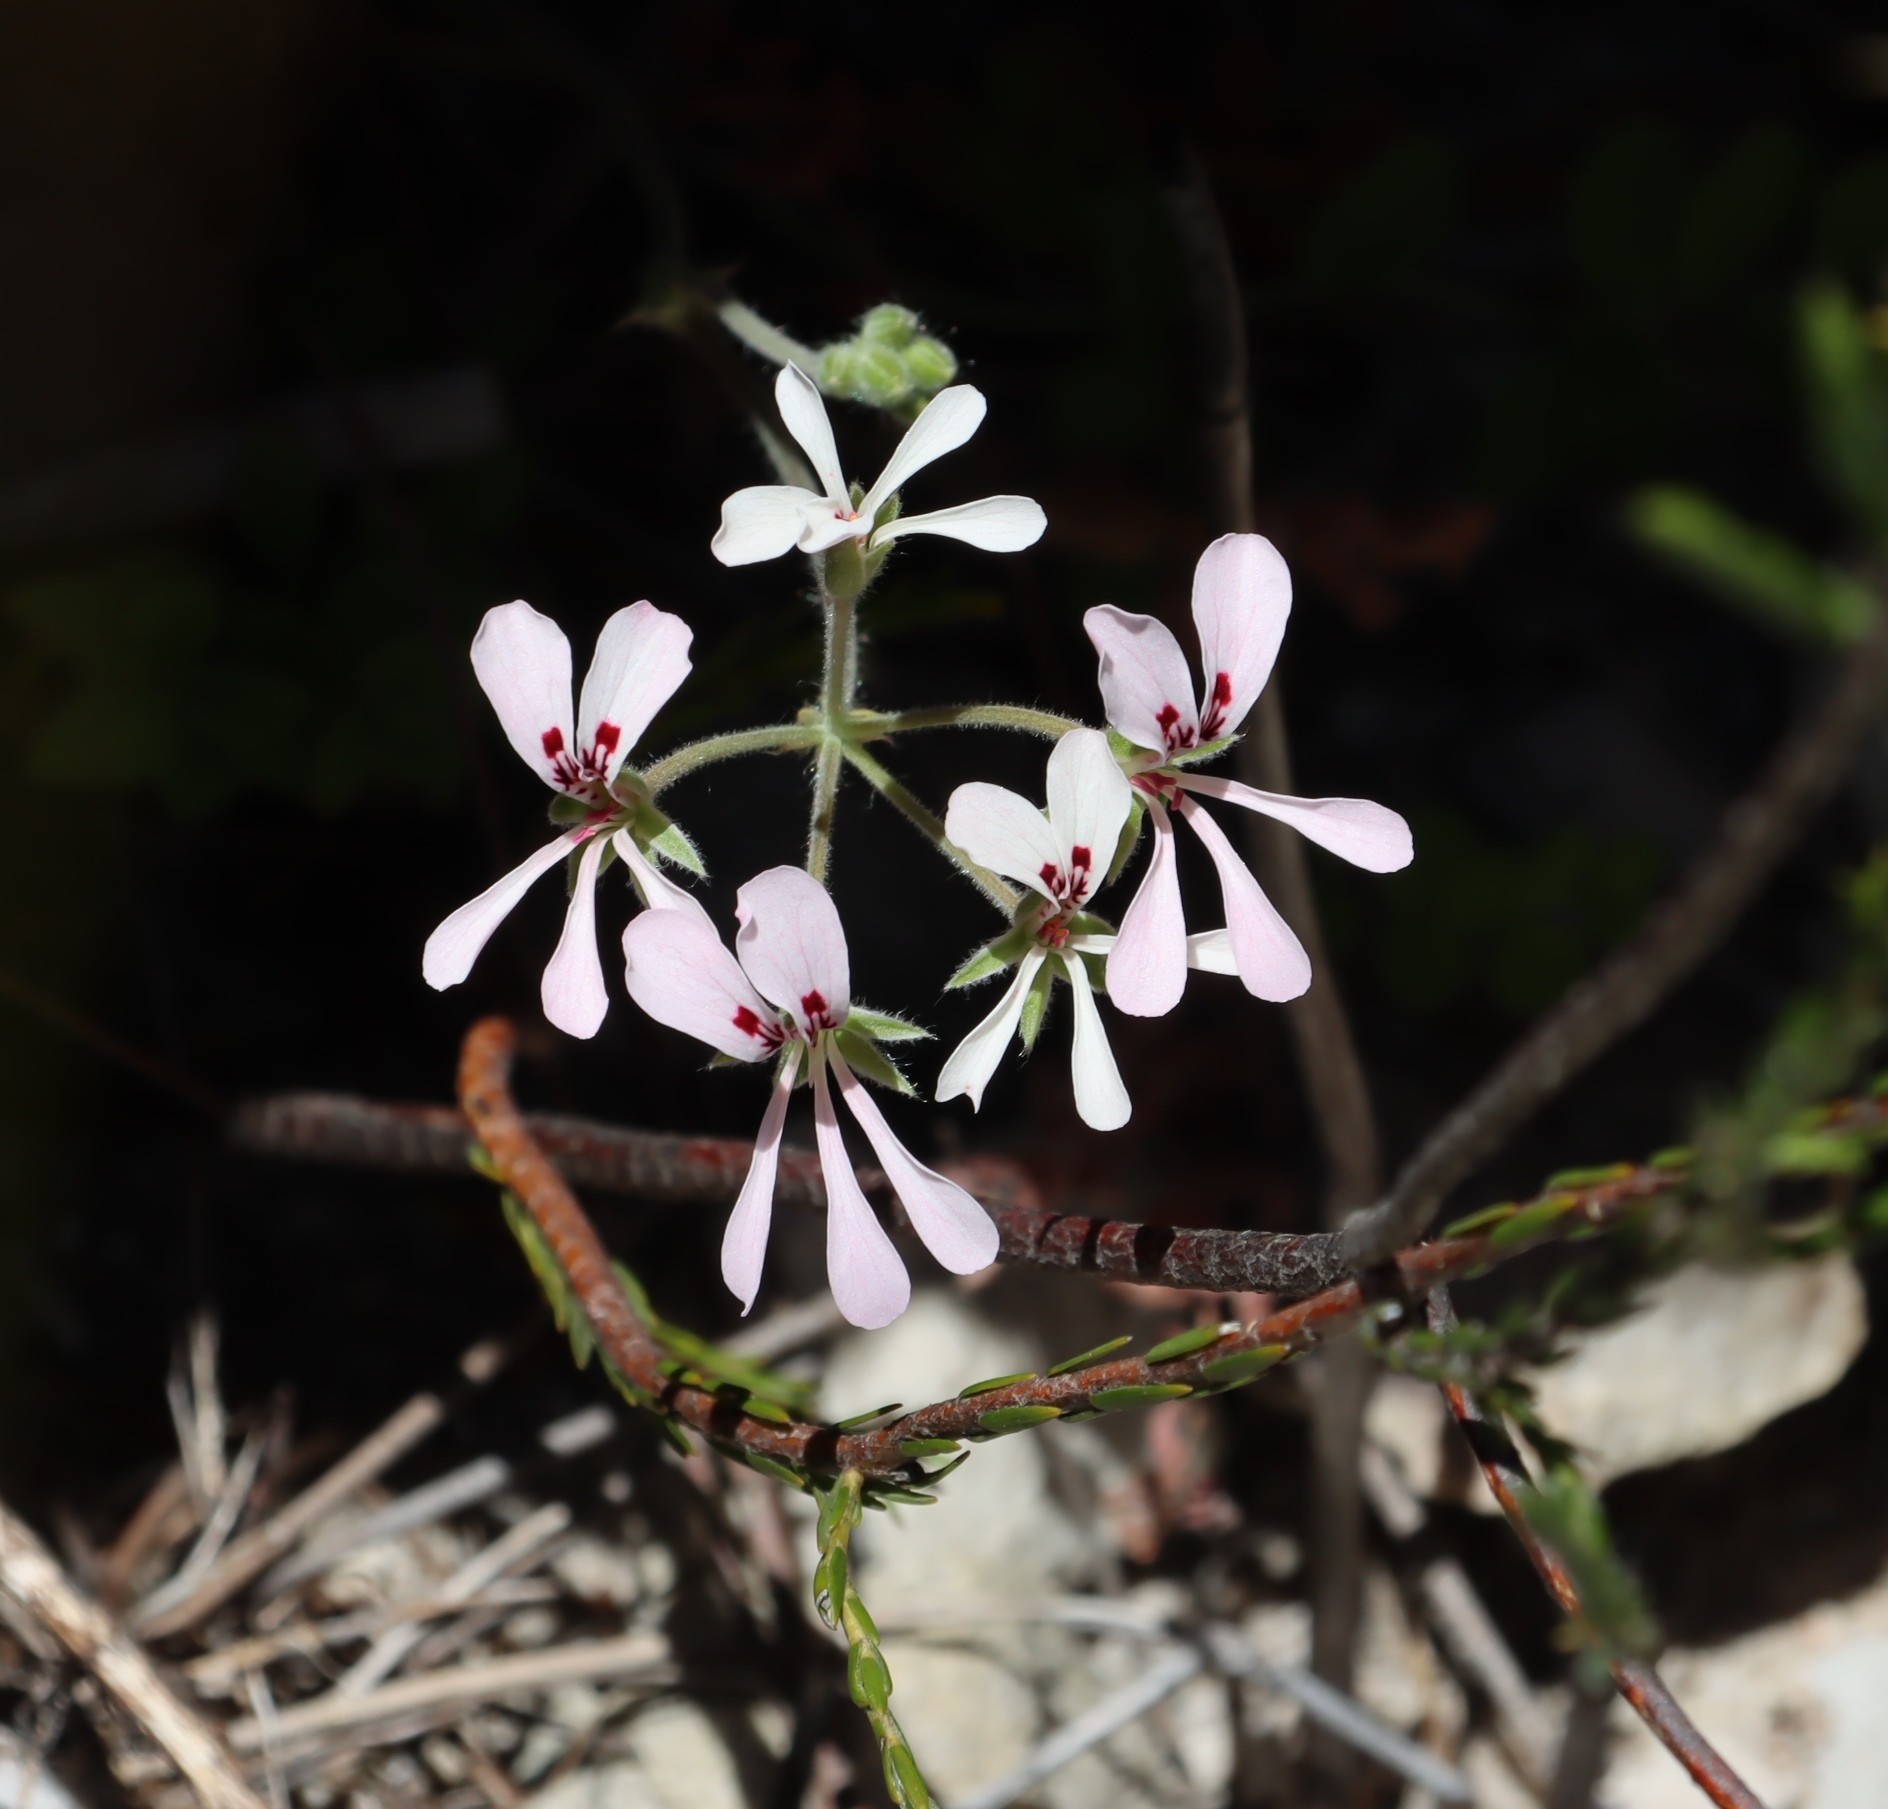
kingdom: Plantae
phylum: Tracheophyta
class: Magnoliopsida
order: Geraniales
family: Geraniaceae
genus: Pelargonium
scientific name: Pelargonium pinnatum
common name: Pinnated pelargonium
